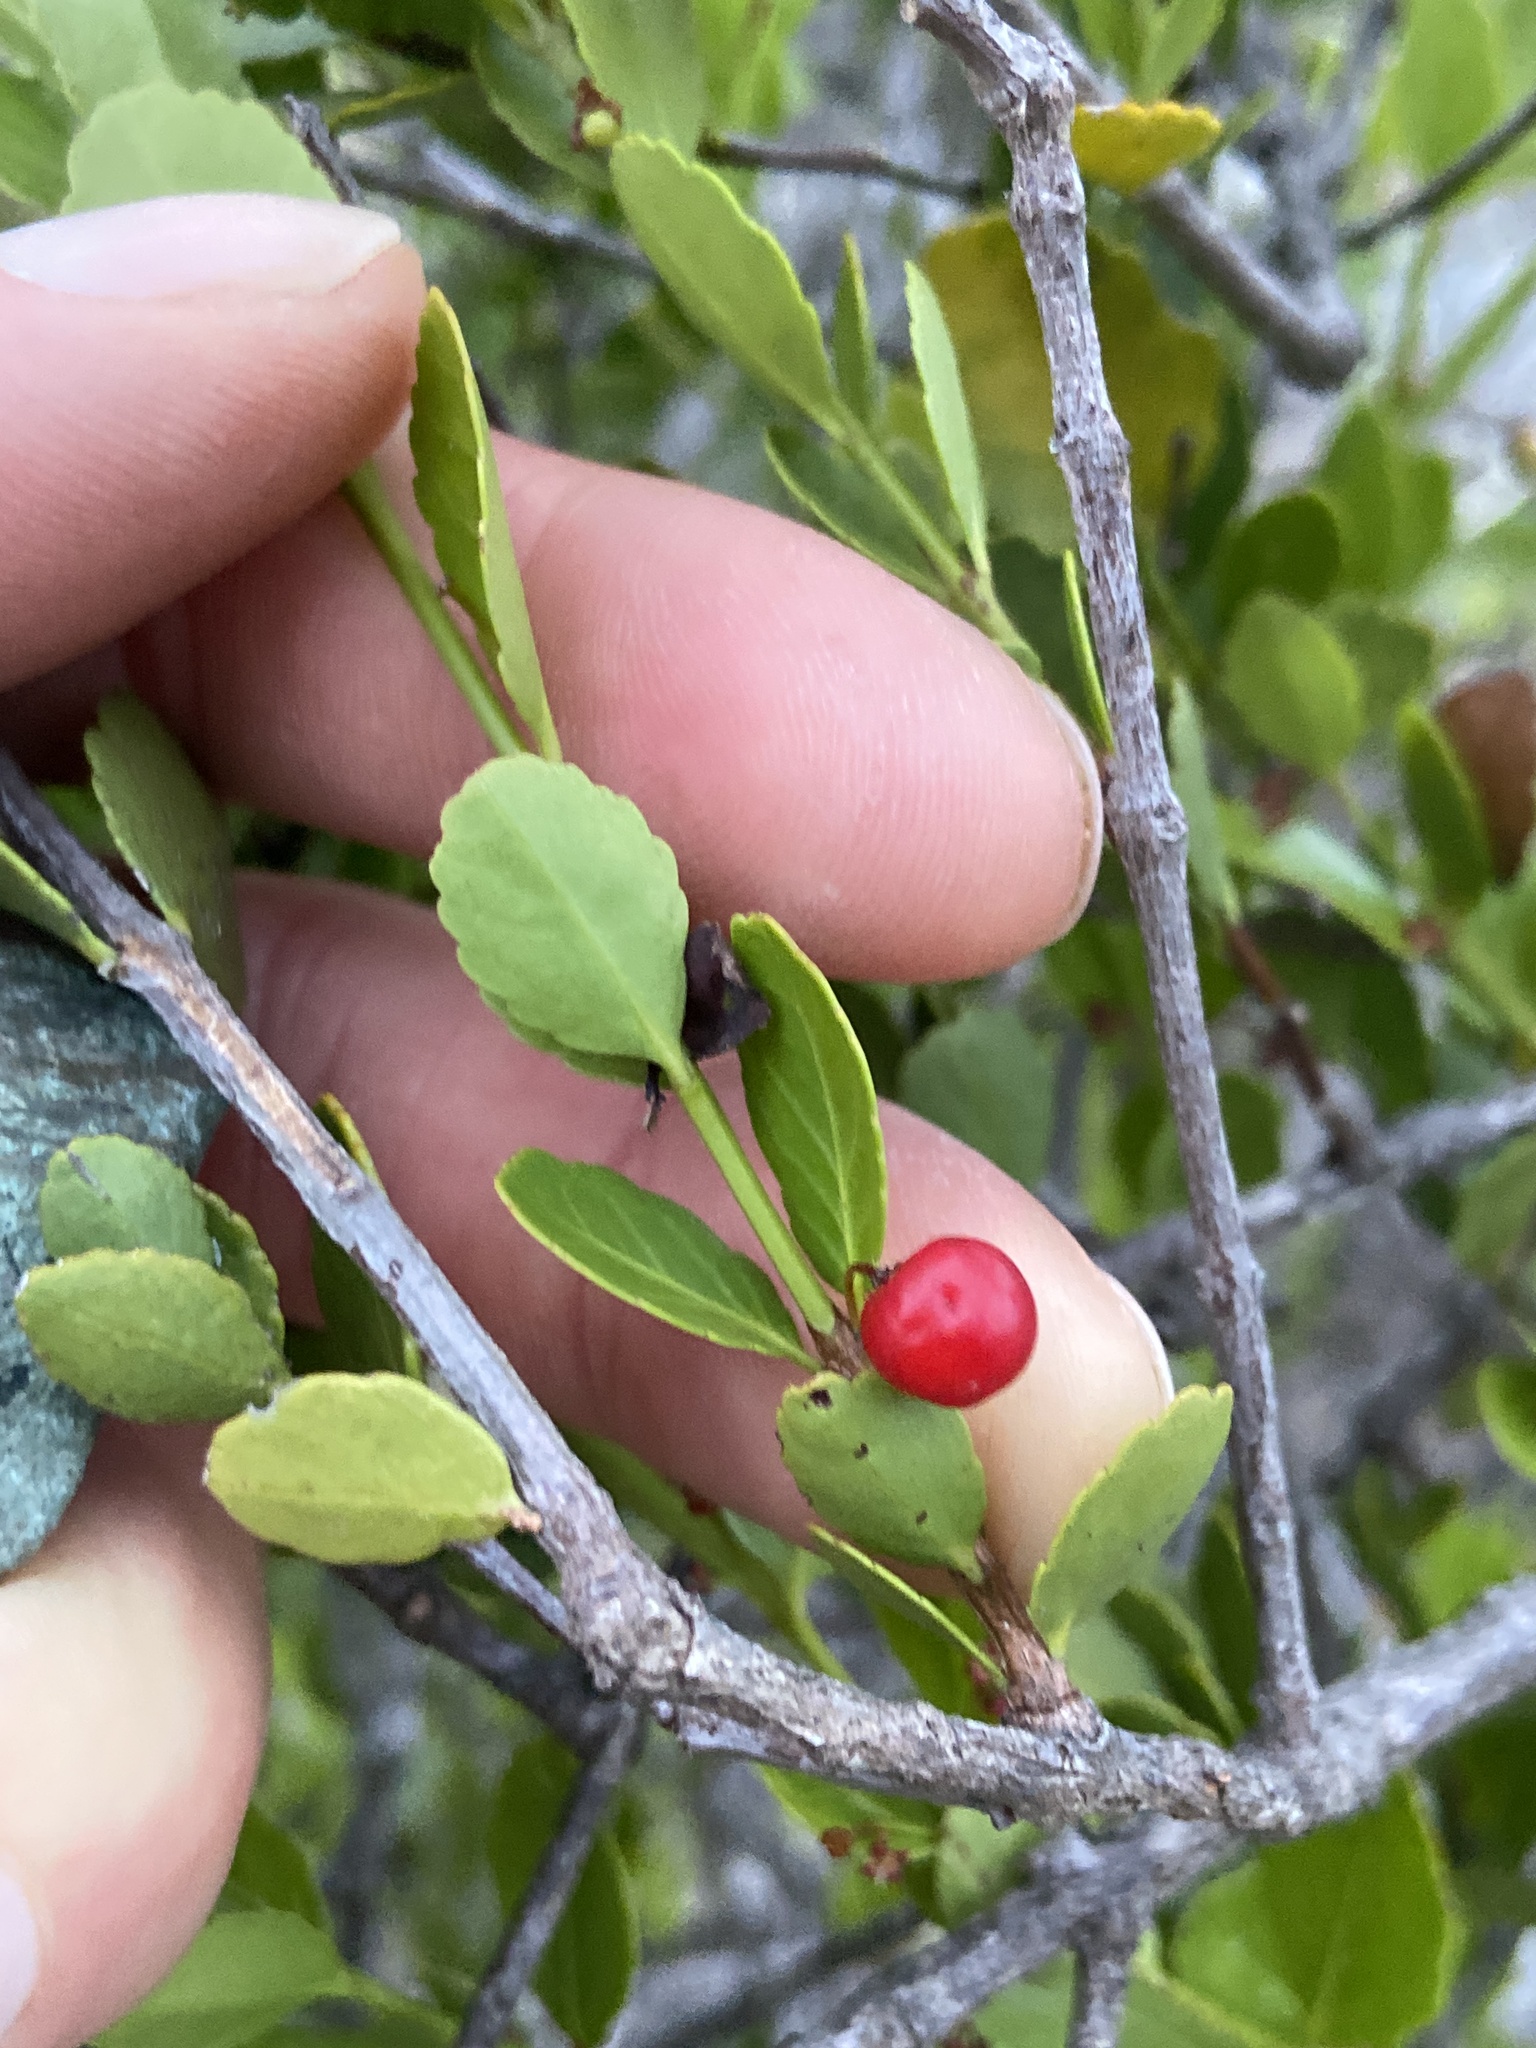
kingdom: Plantae
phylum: Tracheophyta
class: Magnoliopsida
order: Celastrales
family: Celastraceae
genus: Crossopetalum
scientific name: Crossopetalum rhacoma
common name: Maidenberry
